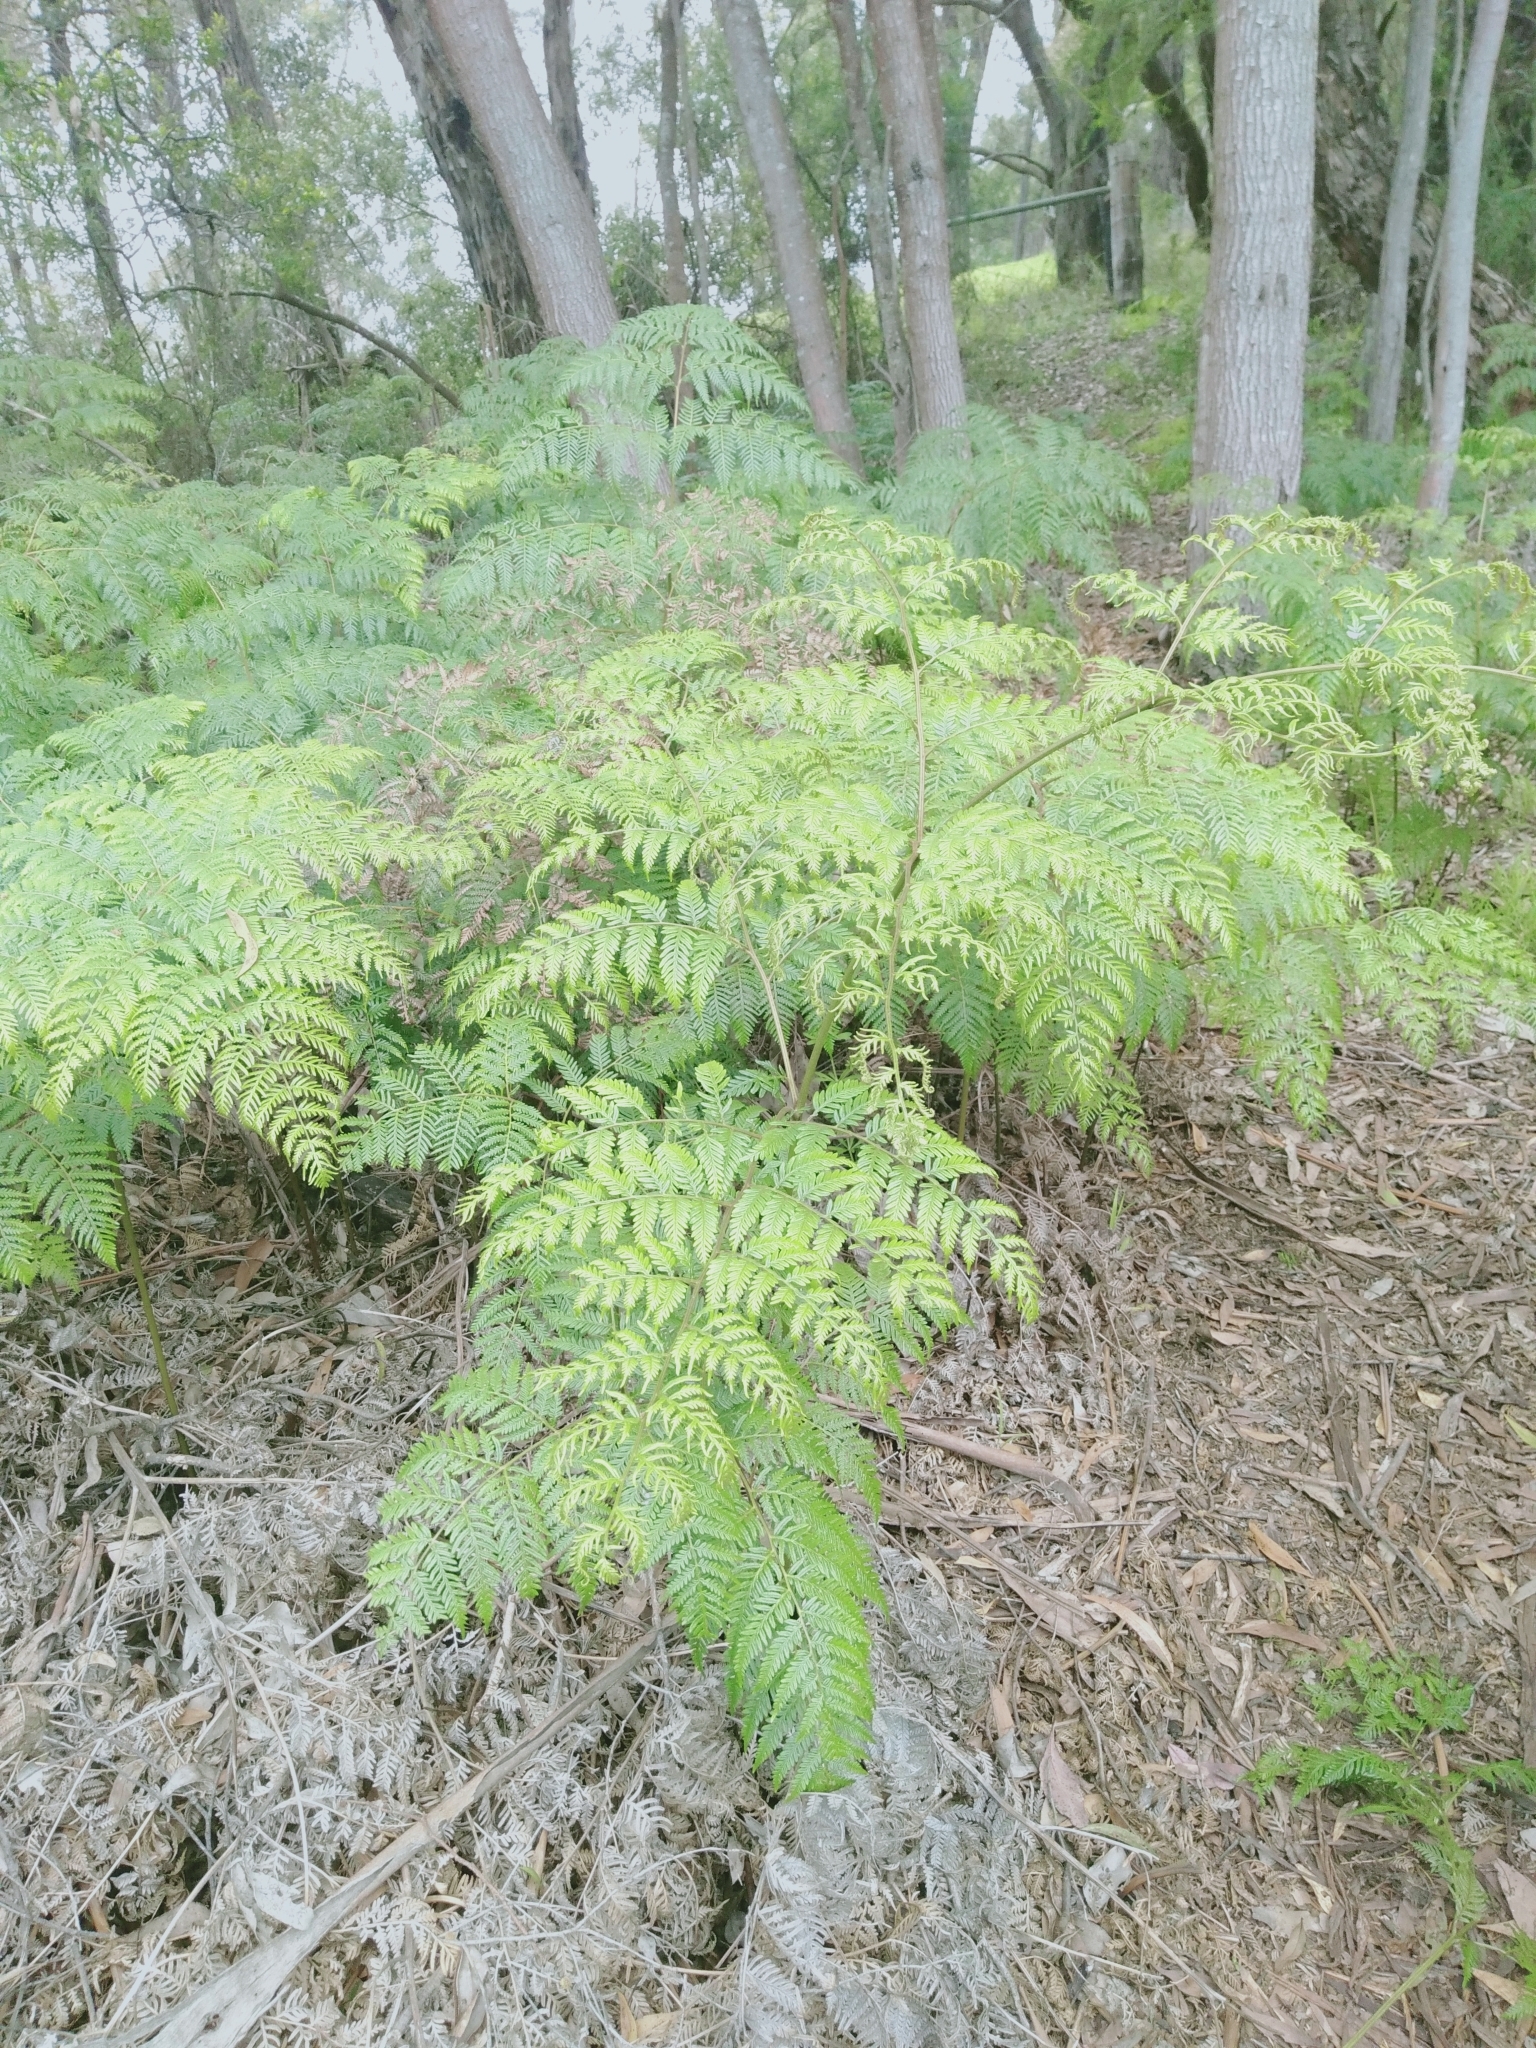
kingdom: Plantae
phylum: Tracheophyta
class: Polypodiopsida
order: Polypodiales
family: Dennstaedtiaceae
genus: Pteridium
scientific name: Pteridium esculentum
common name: Bracken fern
